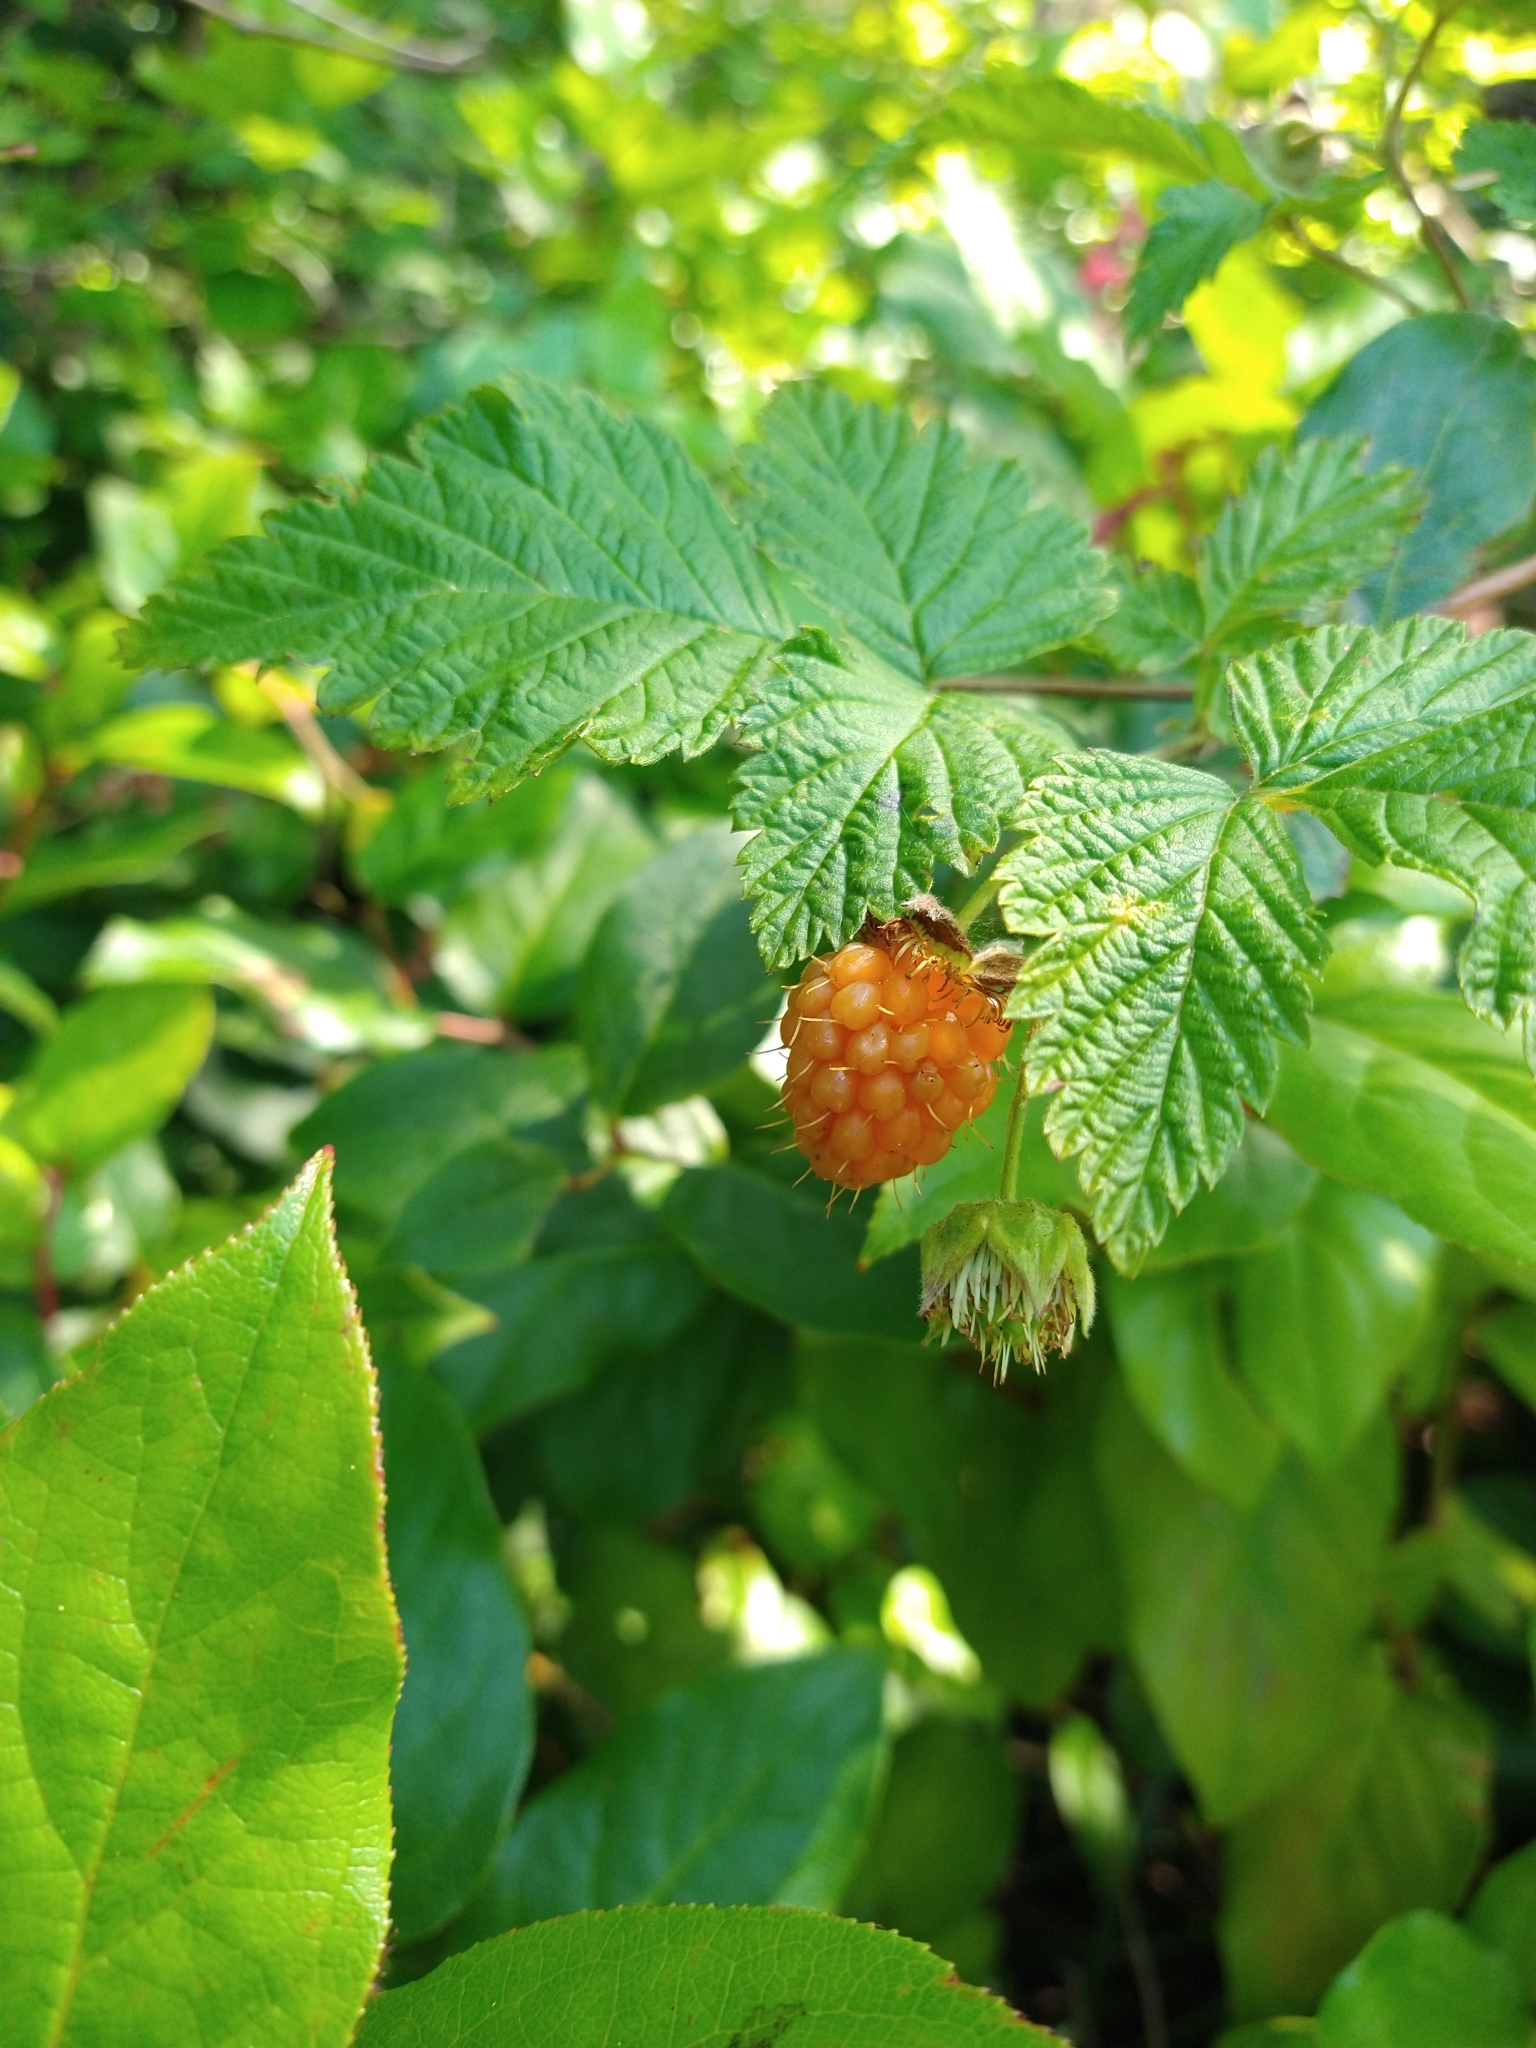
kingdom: Plantae
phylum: Tracheophyta
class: Magnoliopsida
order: Rosales
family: Rosaceae
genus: Rubus
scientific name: Rubus spectabilis
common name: Salmonberry
